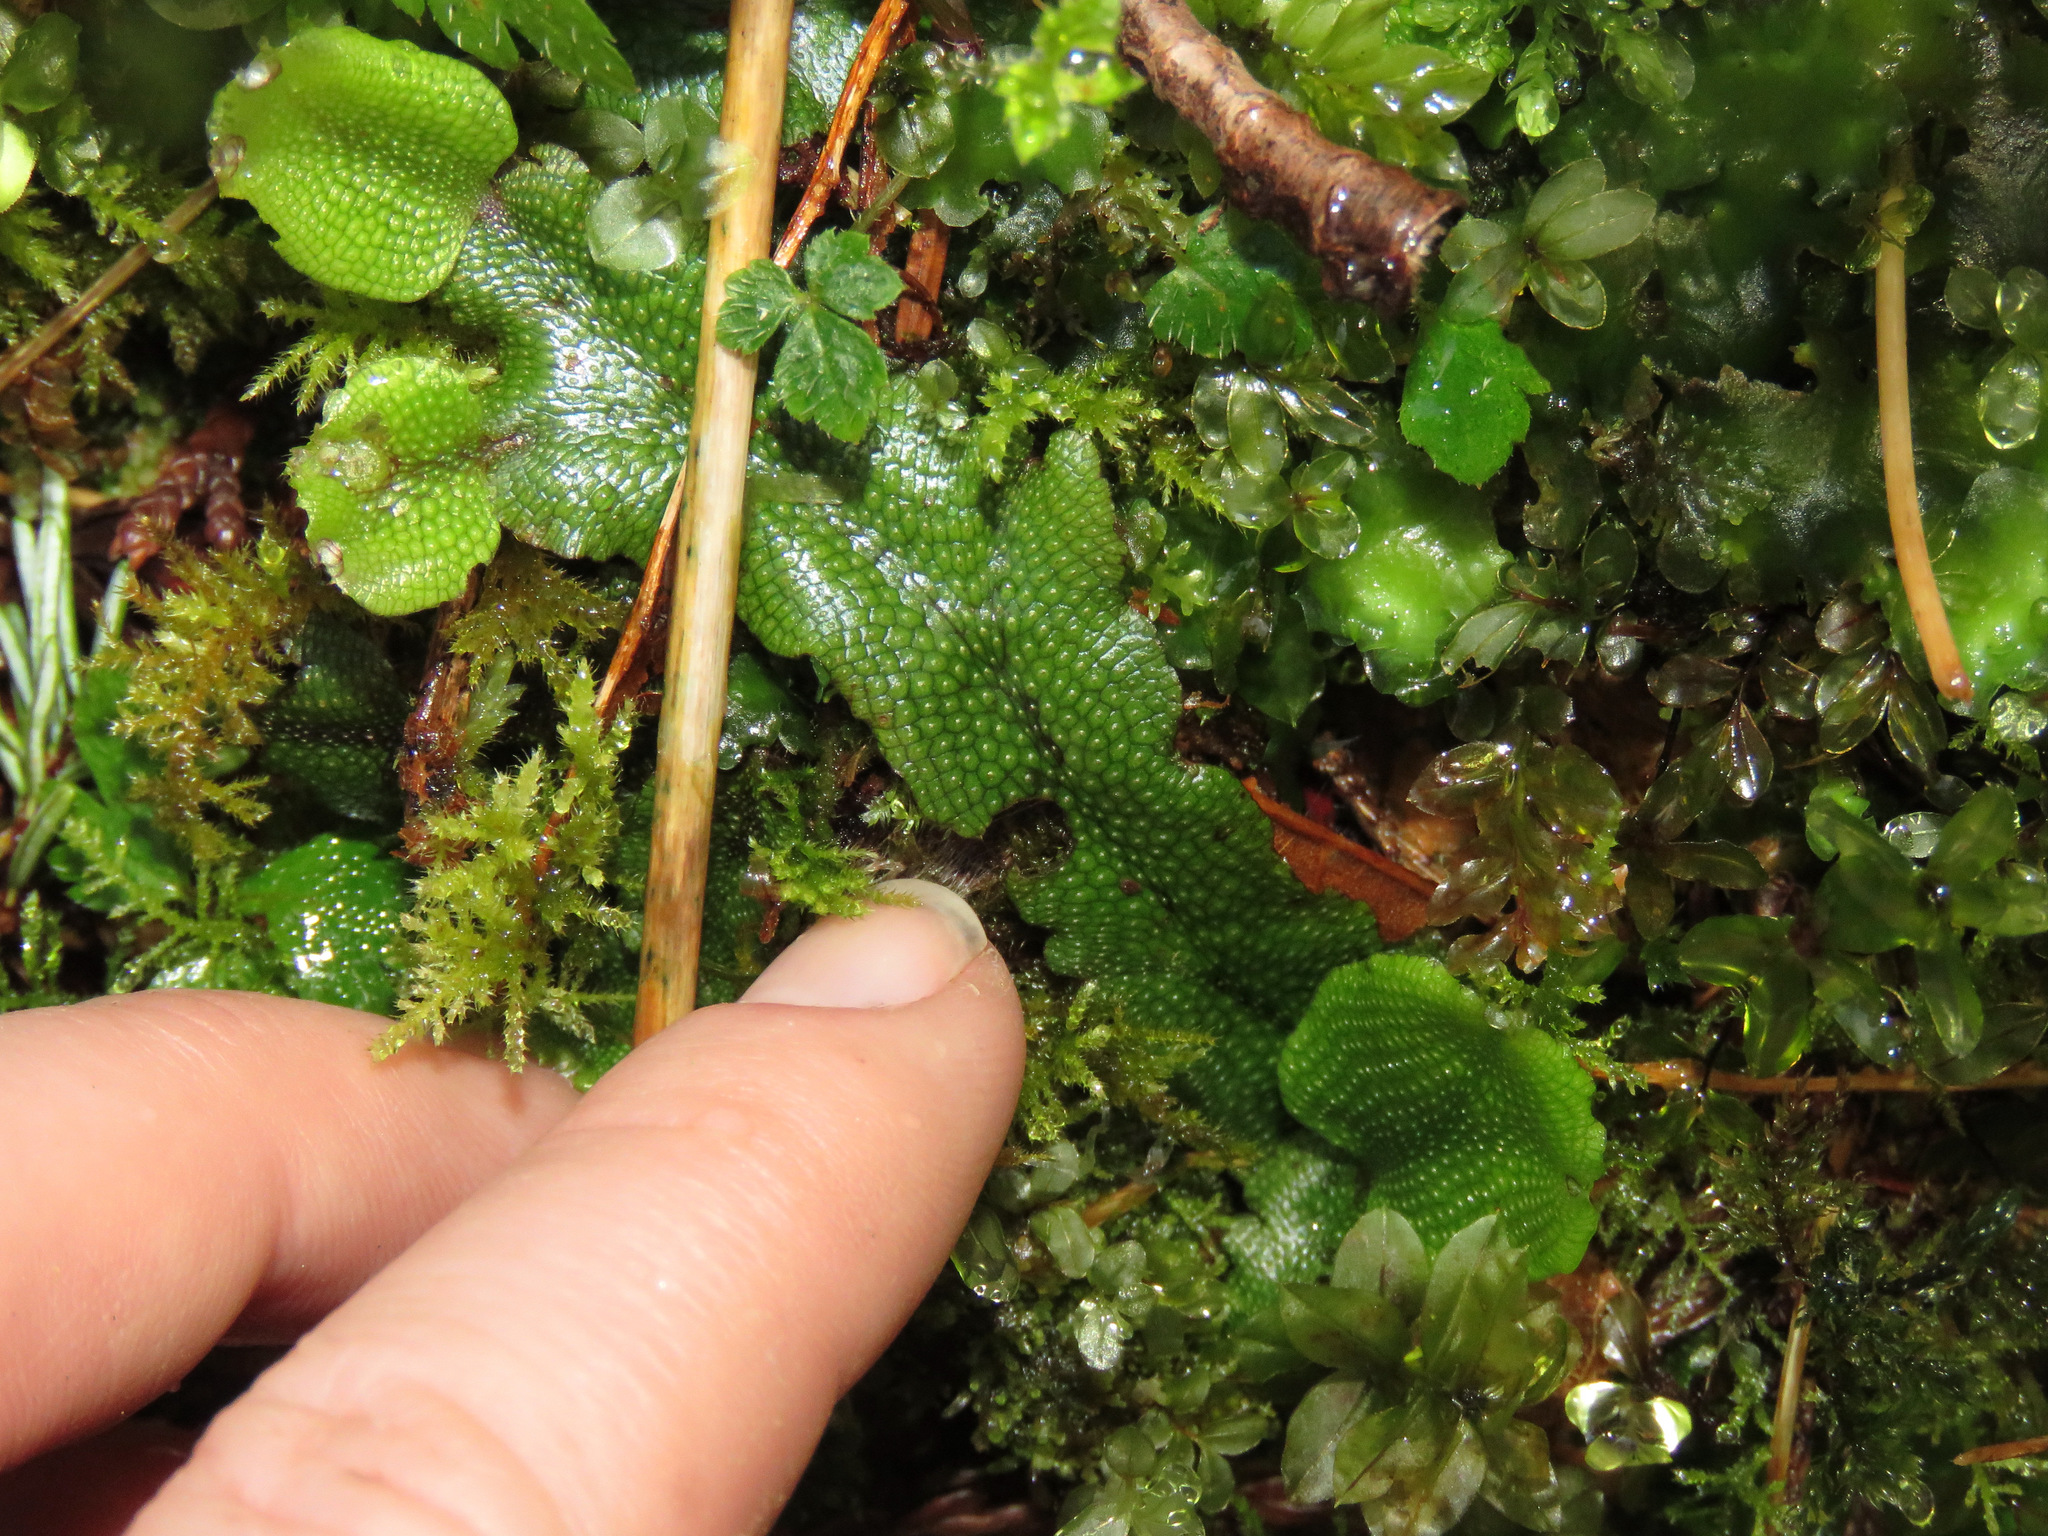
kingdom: Plantae
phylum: Marchantiophyta
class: Marchantiopsida
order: Marchantiales
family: Conocephalaceae
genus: Conocephalum
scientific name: Conocephalum salebrosum
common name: Cat-tongue liverwort
